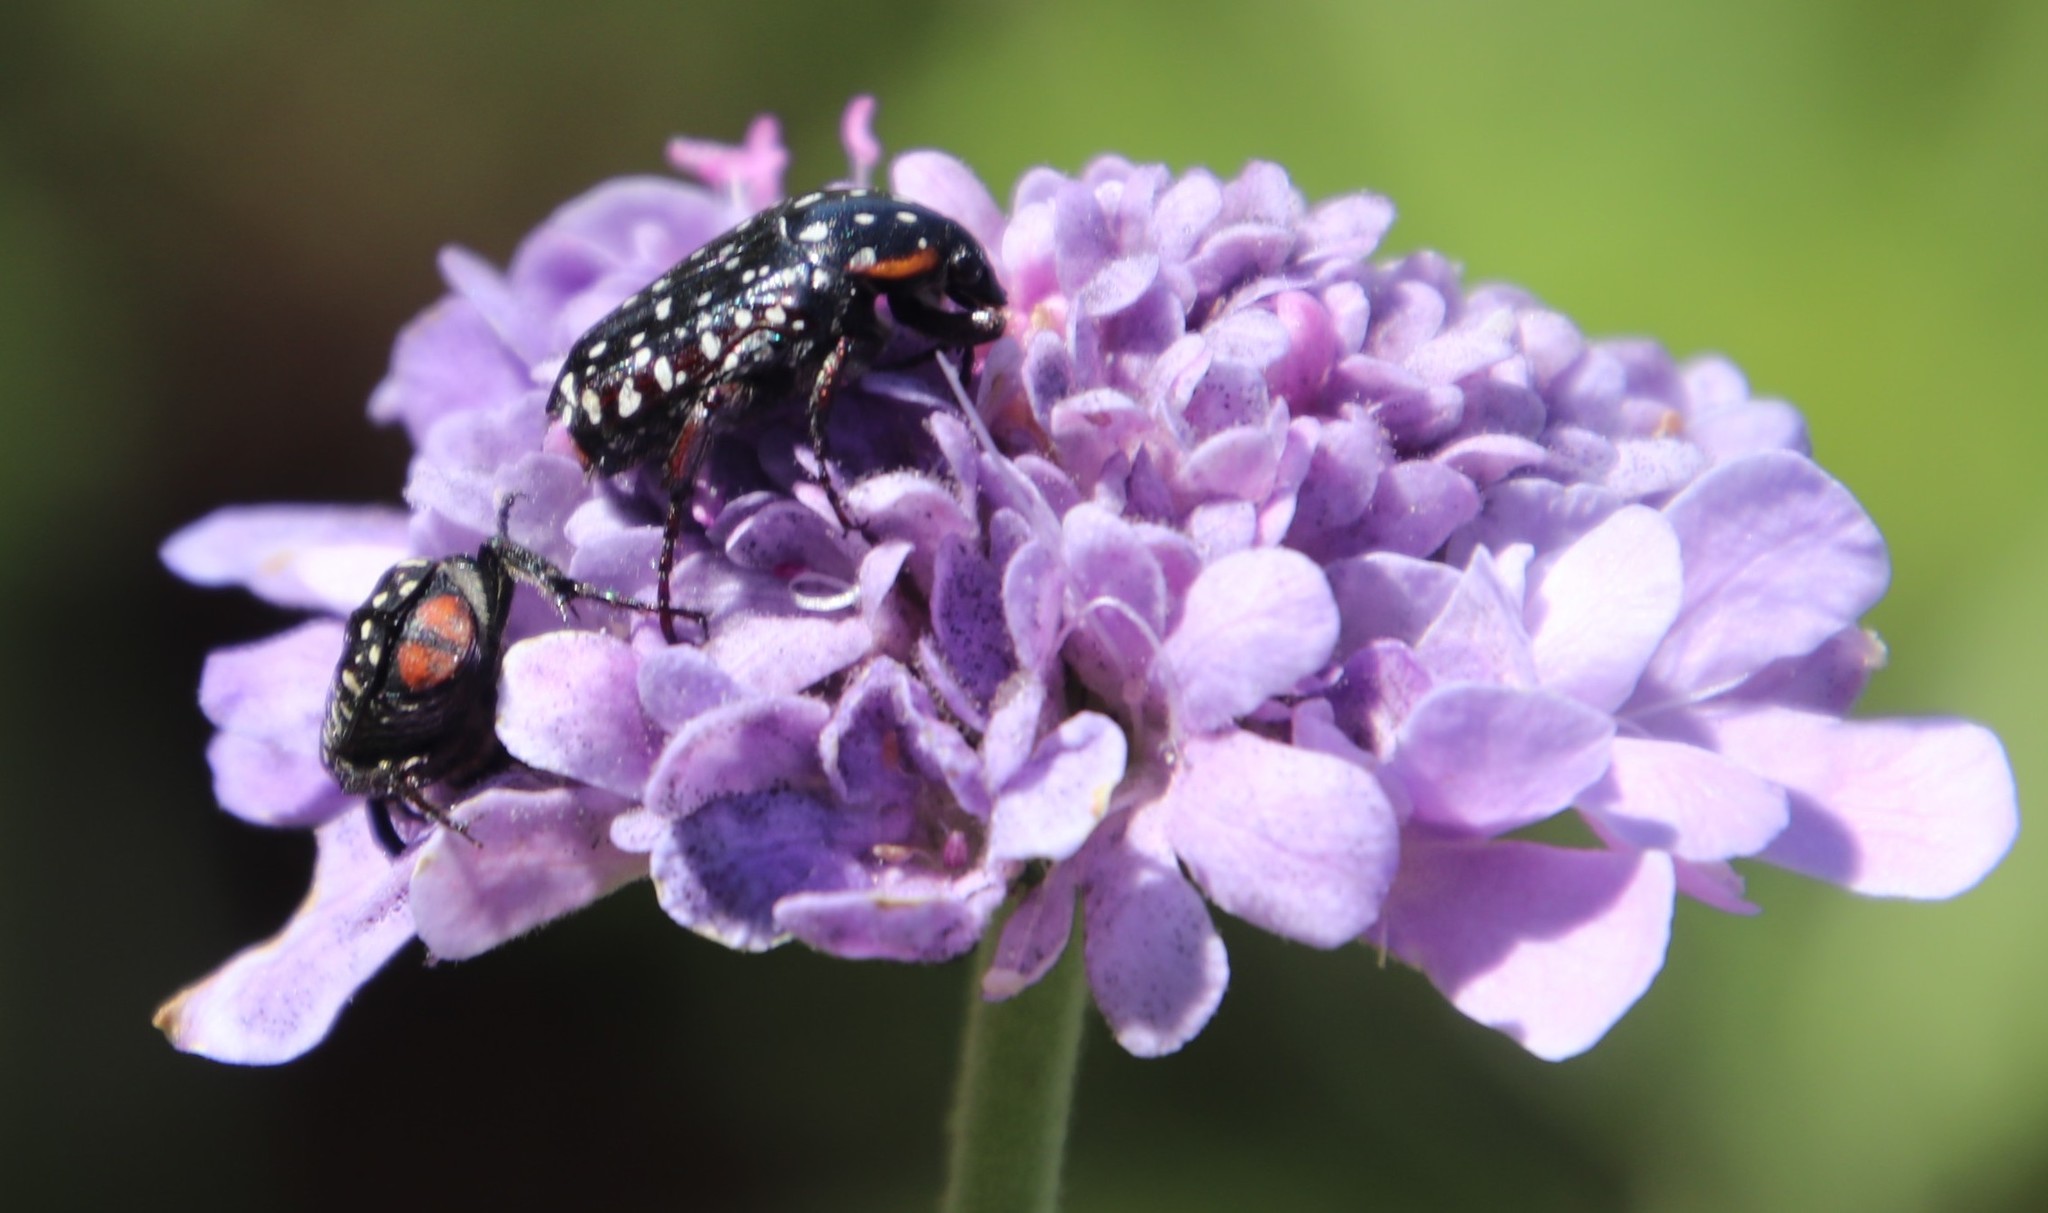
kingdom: Plantae
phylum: Tracheophyta
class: Magnoliopsida
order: Dipsacales
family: Caprifoliaceae
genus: Scabiosa
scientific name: Scabiosa africana
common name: Cape scabious
